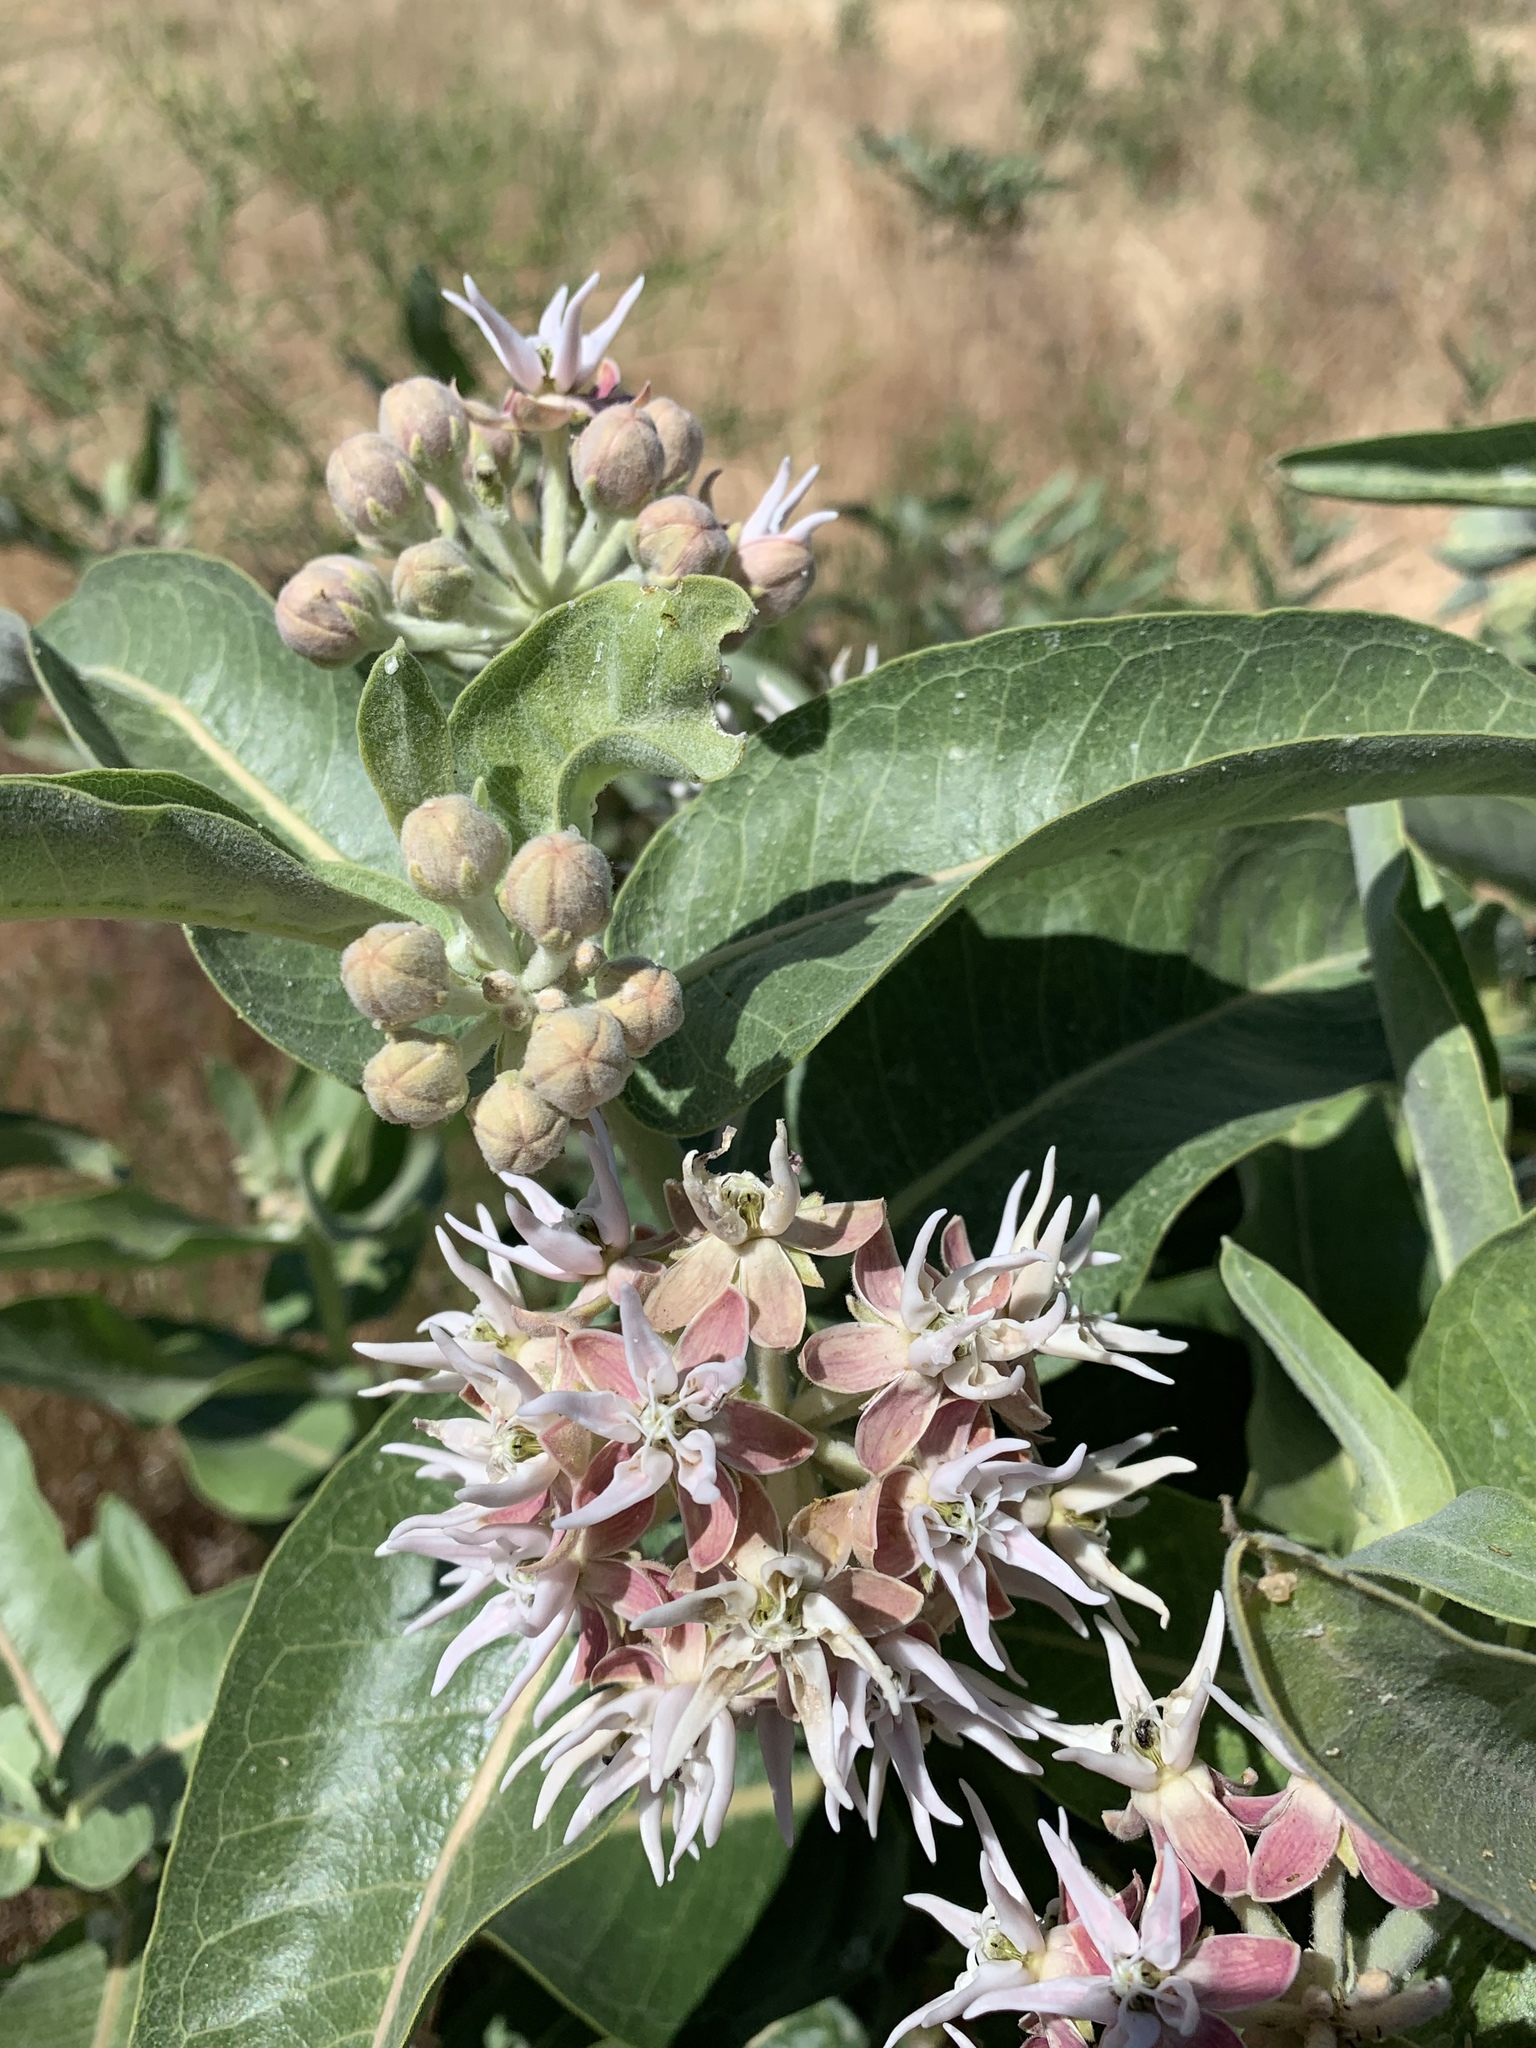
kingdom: Plantae
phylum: Tracheophyta
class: Magnoliopsida
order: Gentianales
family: Apocynaceae
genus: Asclepias
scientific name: Asclepias speciosa
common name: Showy milkweed
